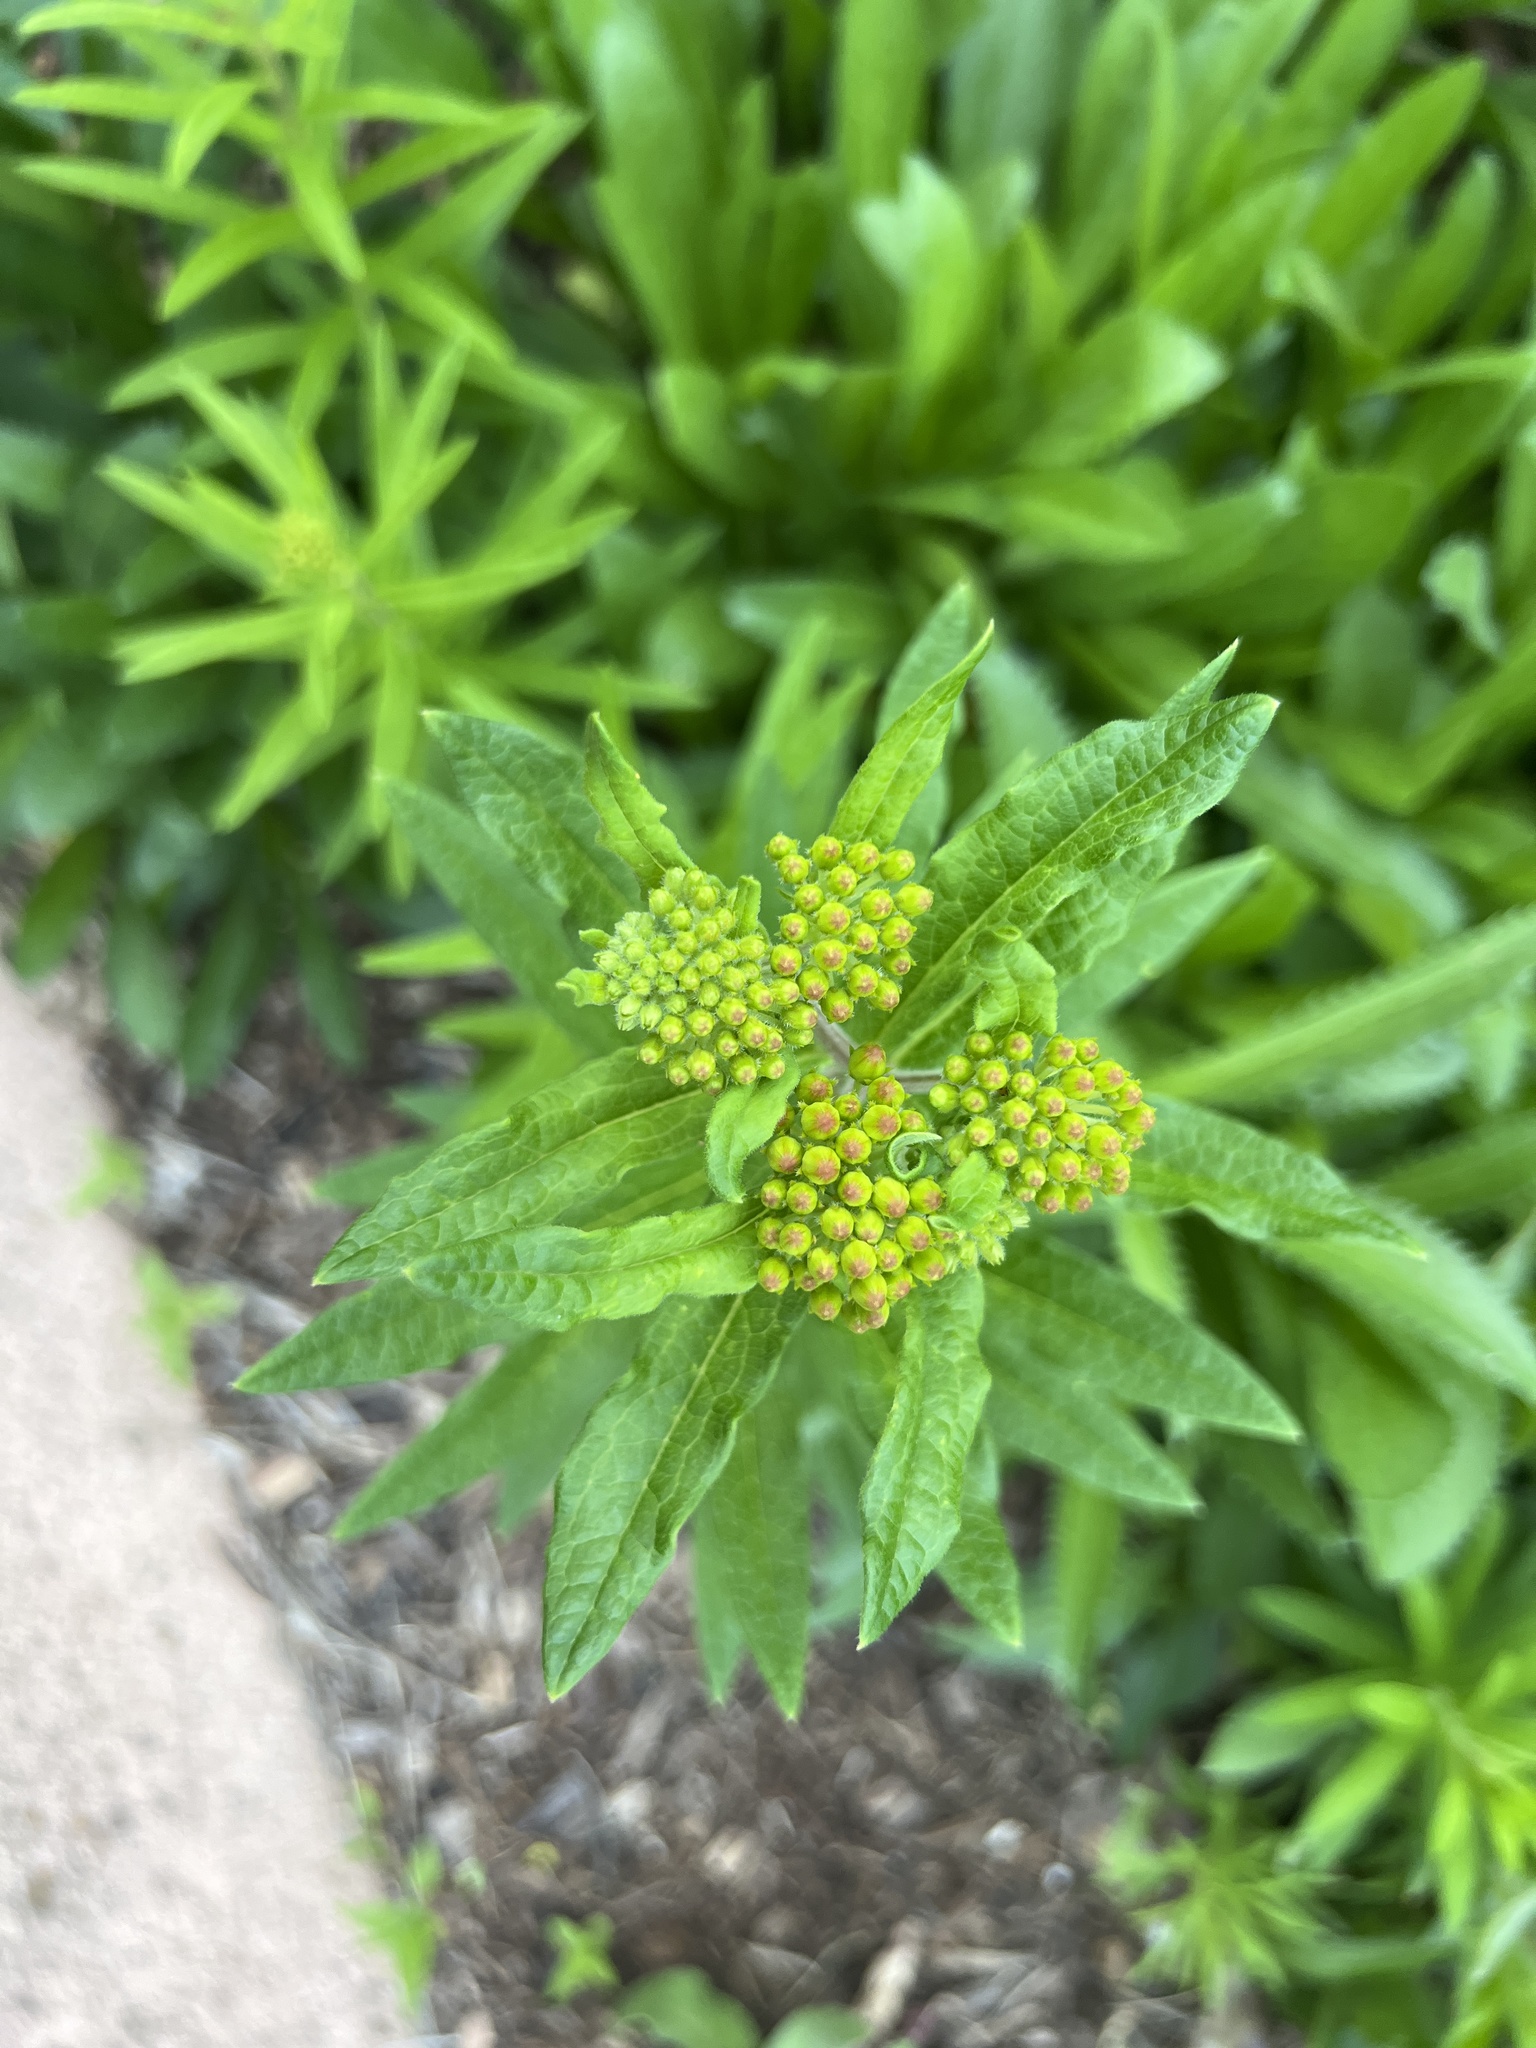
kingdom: Plantae
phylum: Tracheophyta
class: Magnoliopsida
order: Gentianales
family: Apocynaceae
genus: Asclepias
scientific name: Asclepias tuberosa
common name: Butterfly milkweed
